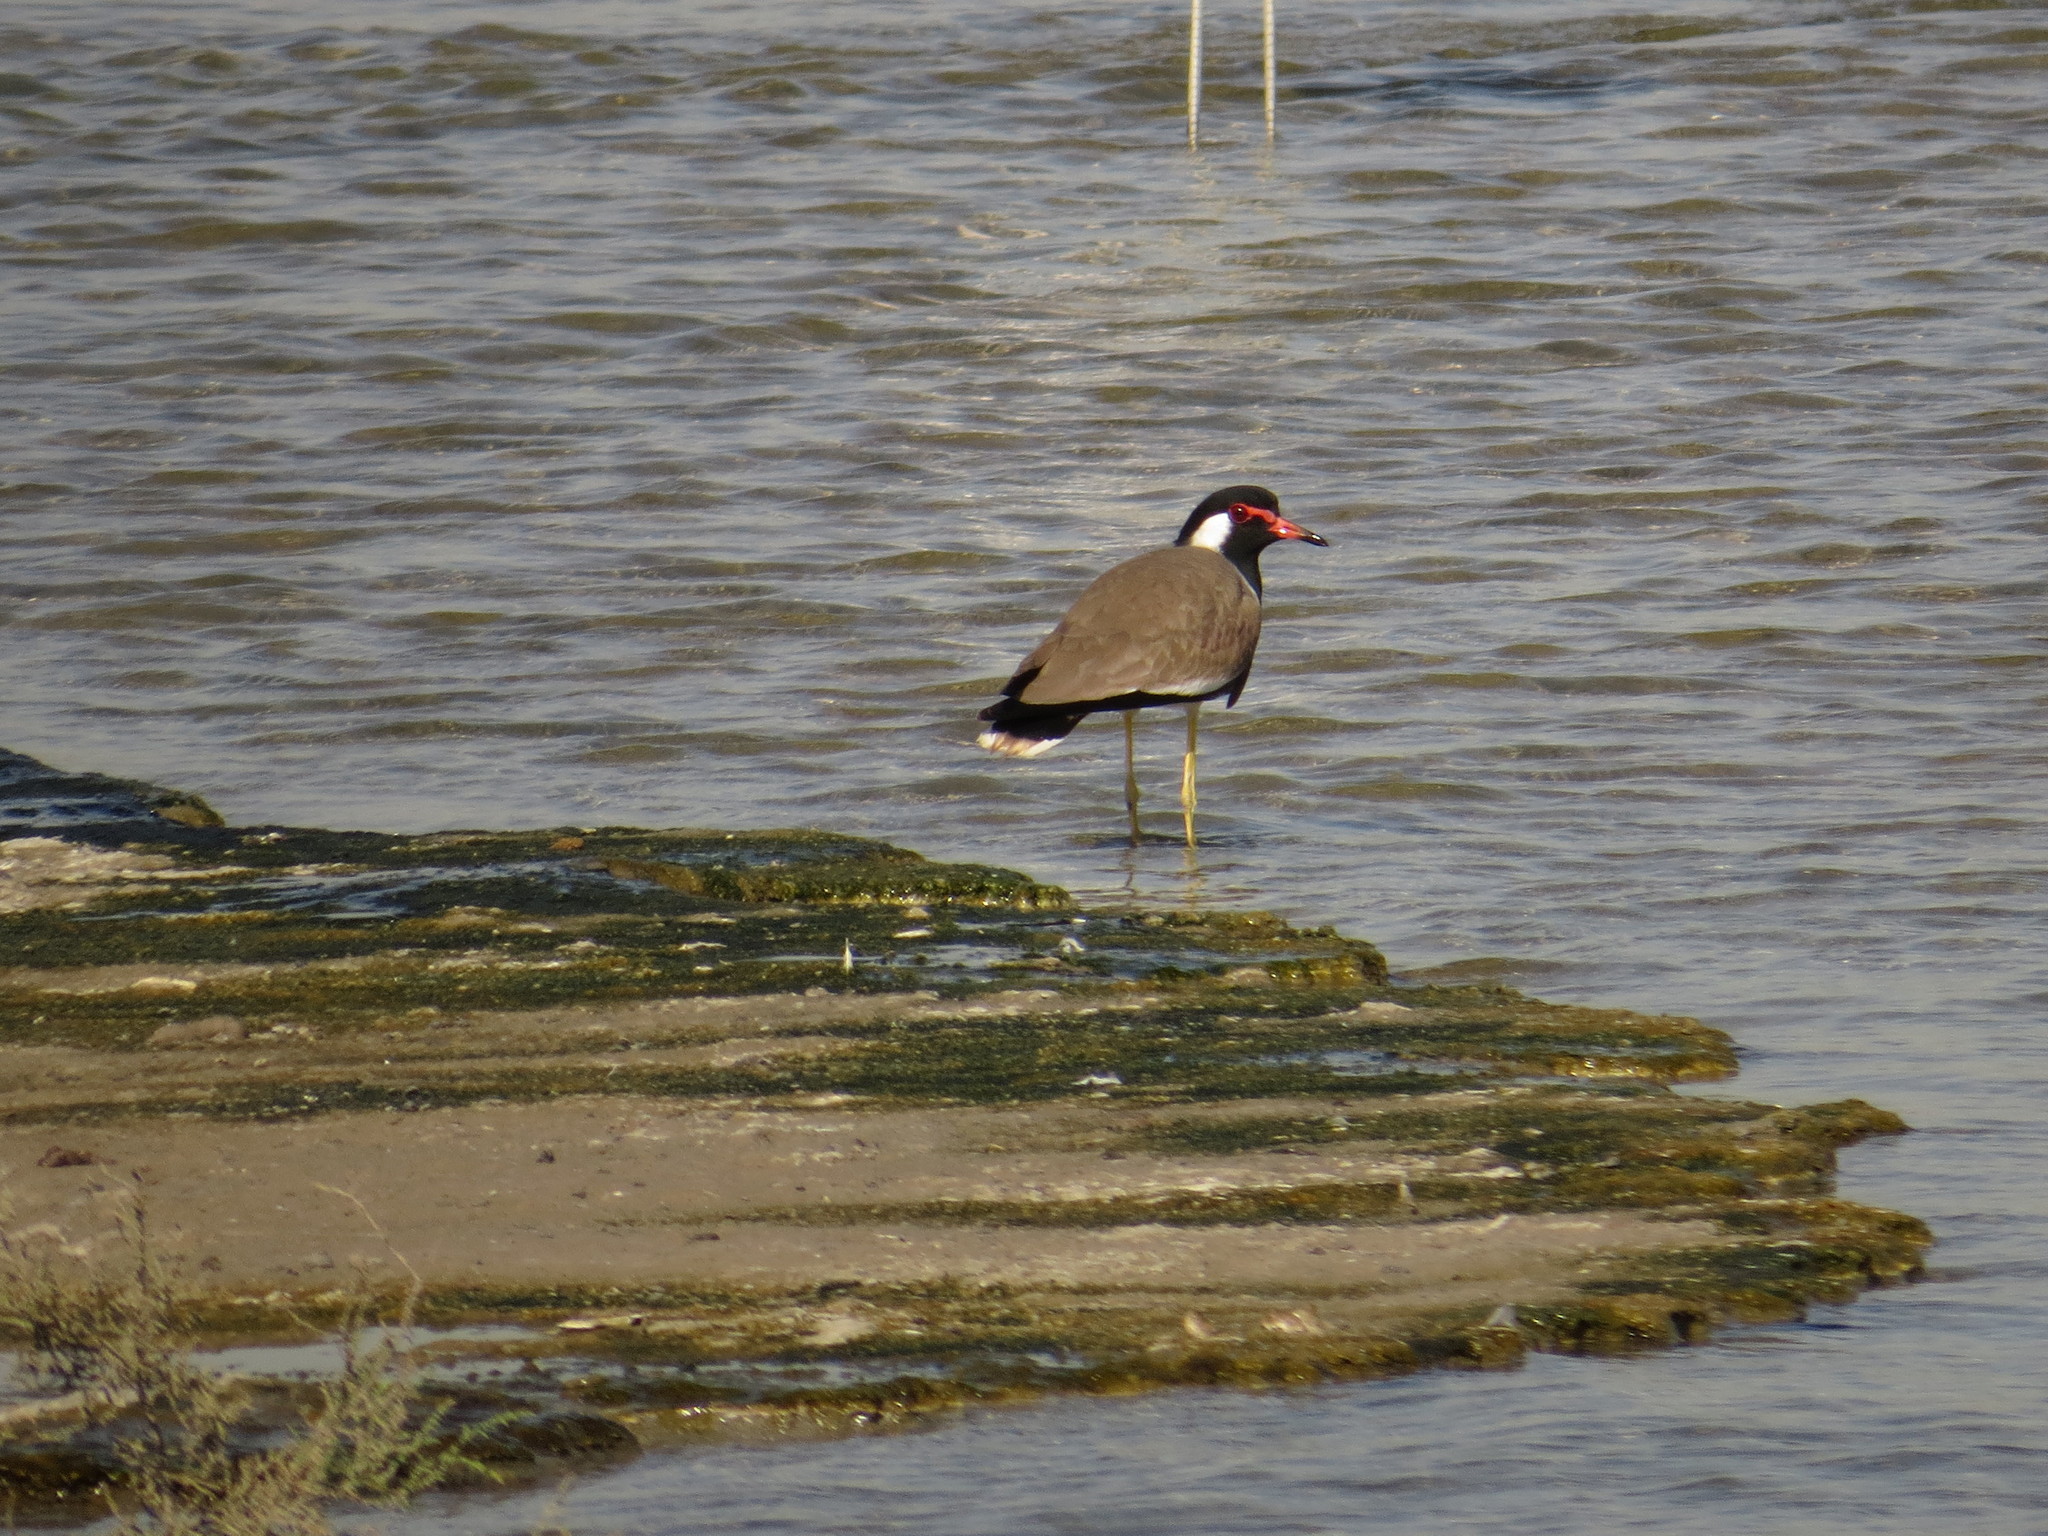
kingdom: Animalia
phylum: Chordata
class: Aves
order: Charadriiformes
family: Charadriidae
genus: Vanellus
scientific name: Vanellus indicus
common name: Red-wattled lapwing
